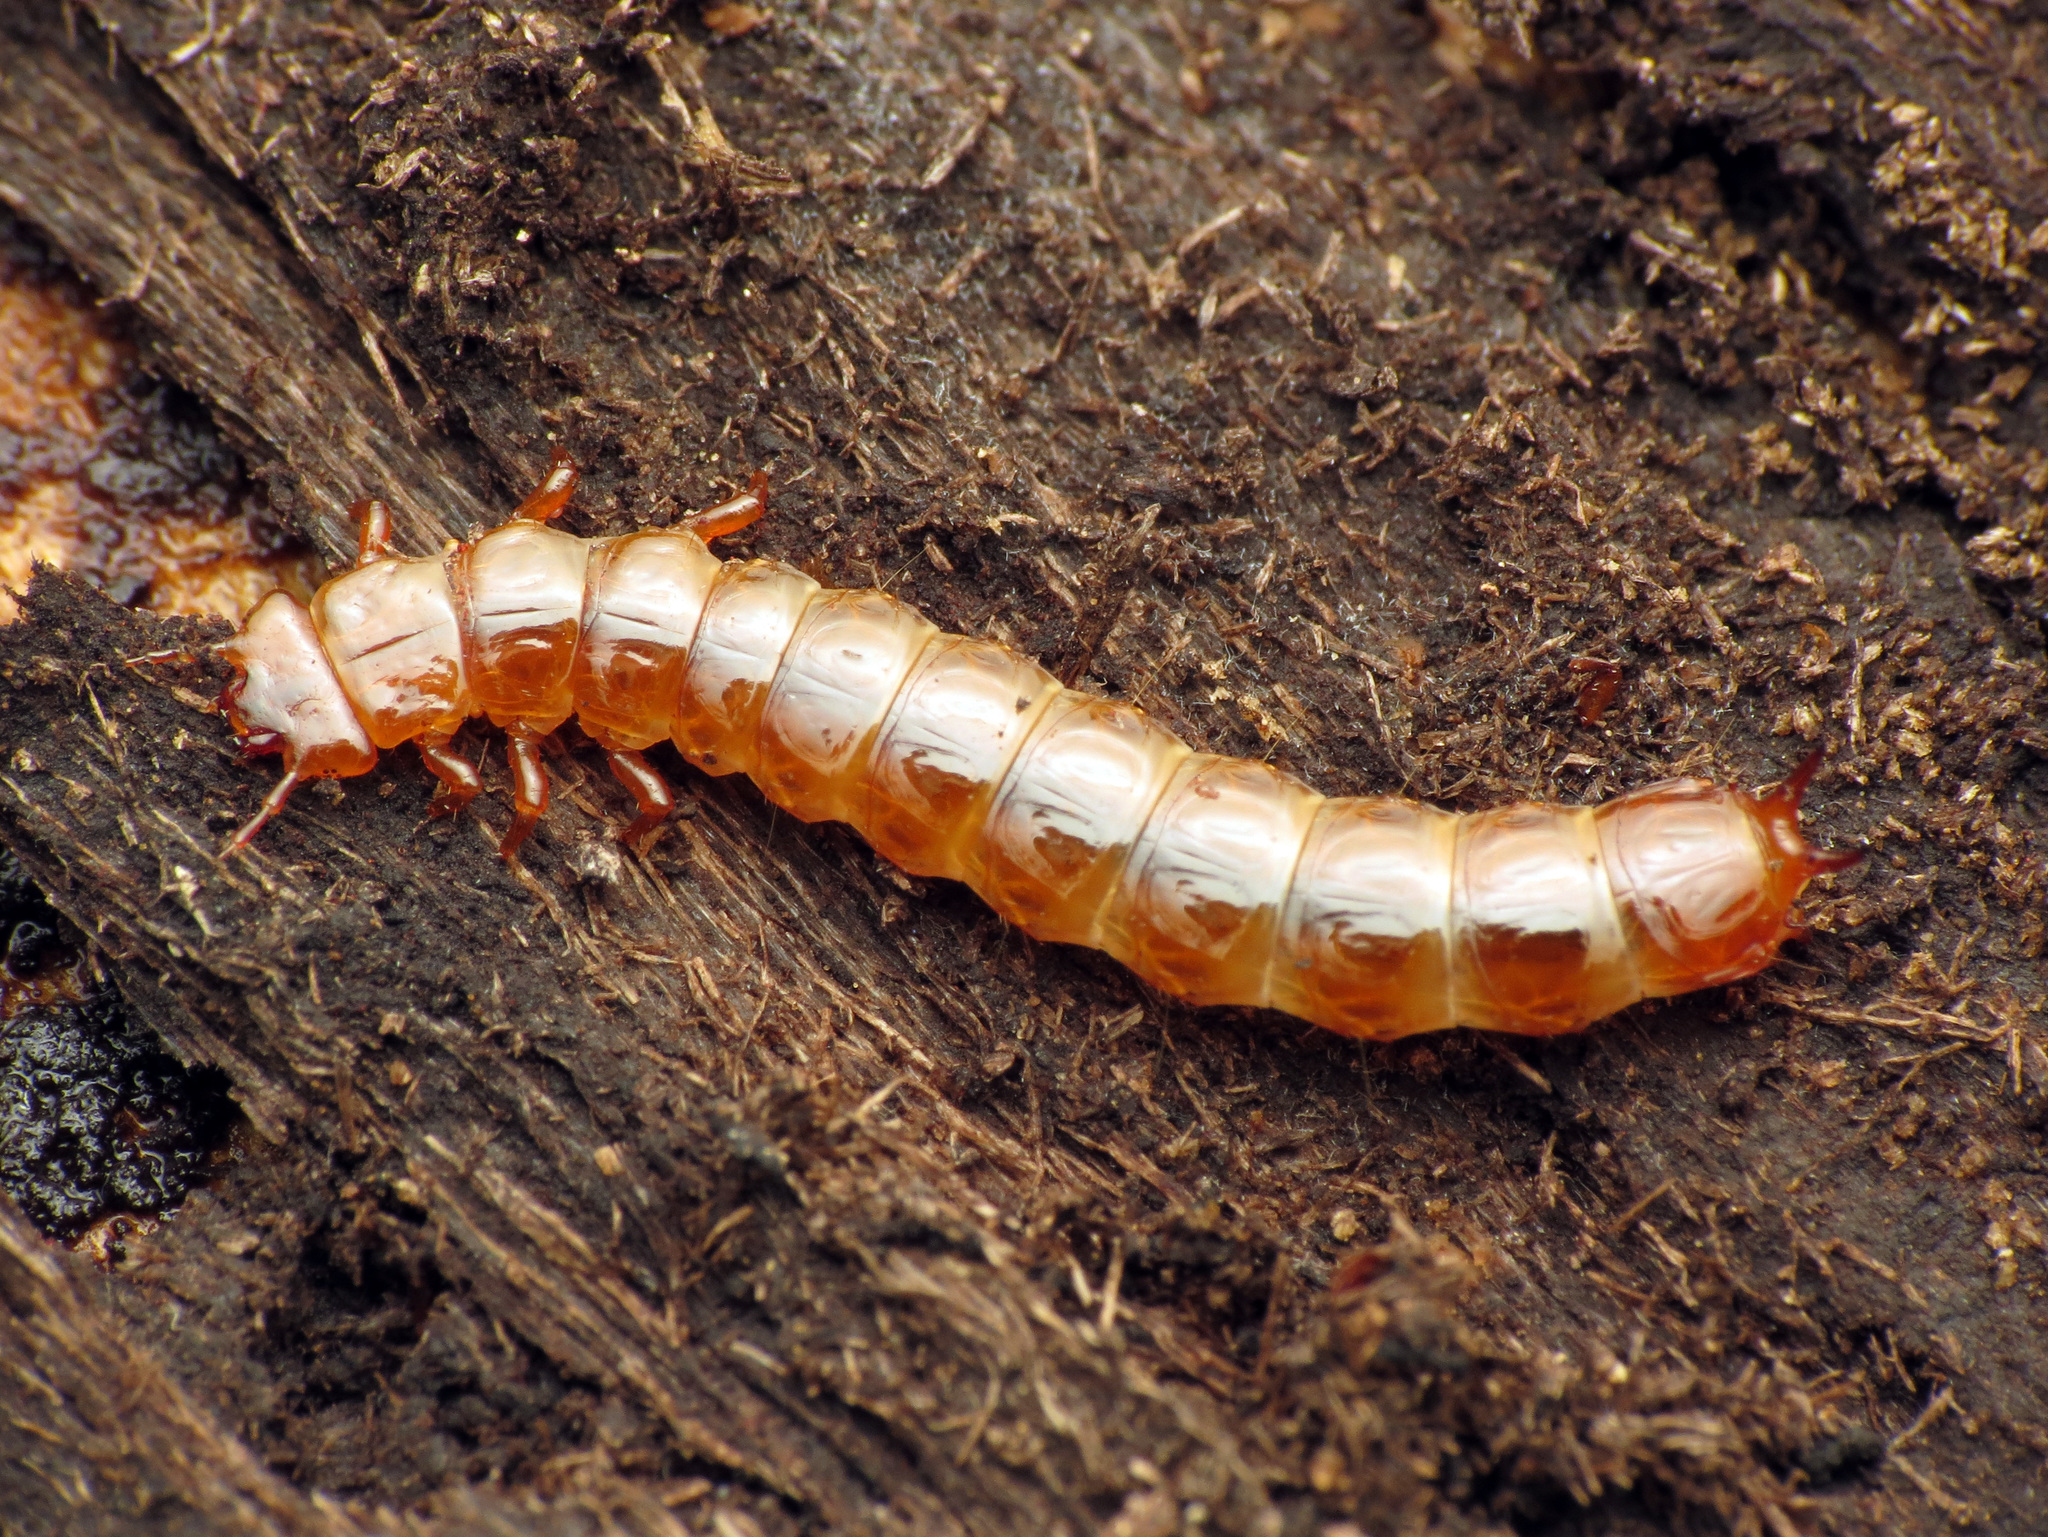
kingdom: Animalia
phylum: Arthropoda
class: Insecta
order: Coleoptera
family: Cucujidae
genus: Cucujus
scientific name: Cucujus clavipes
